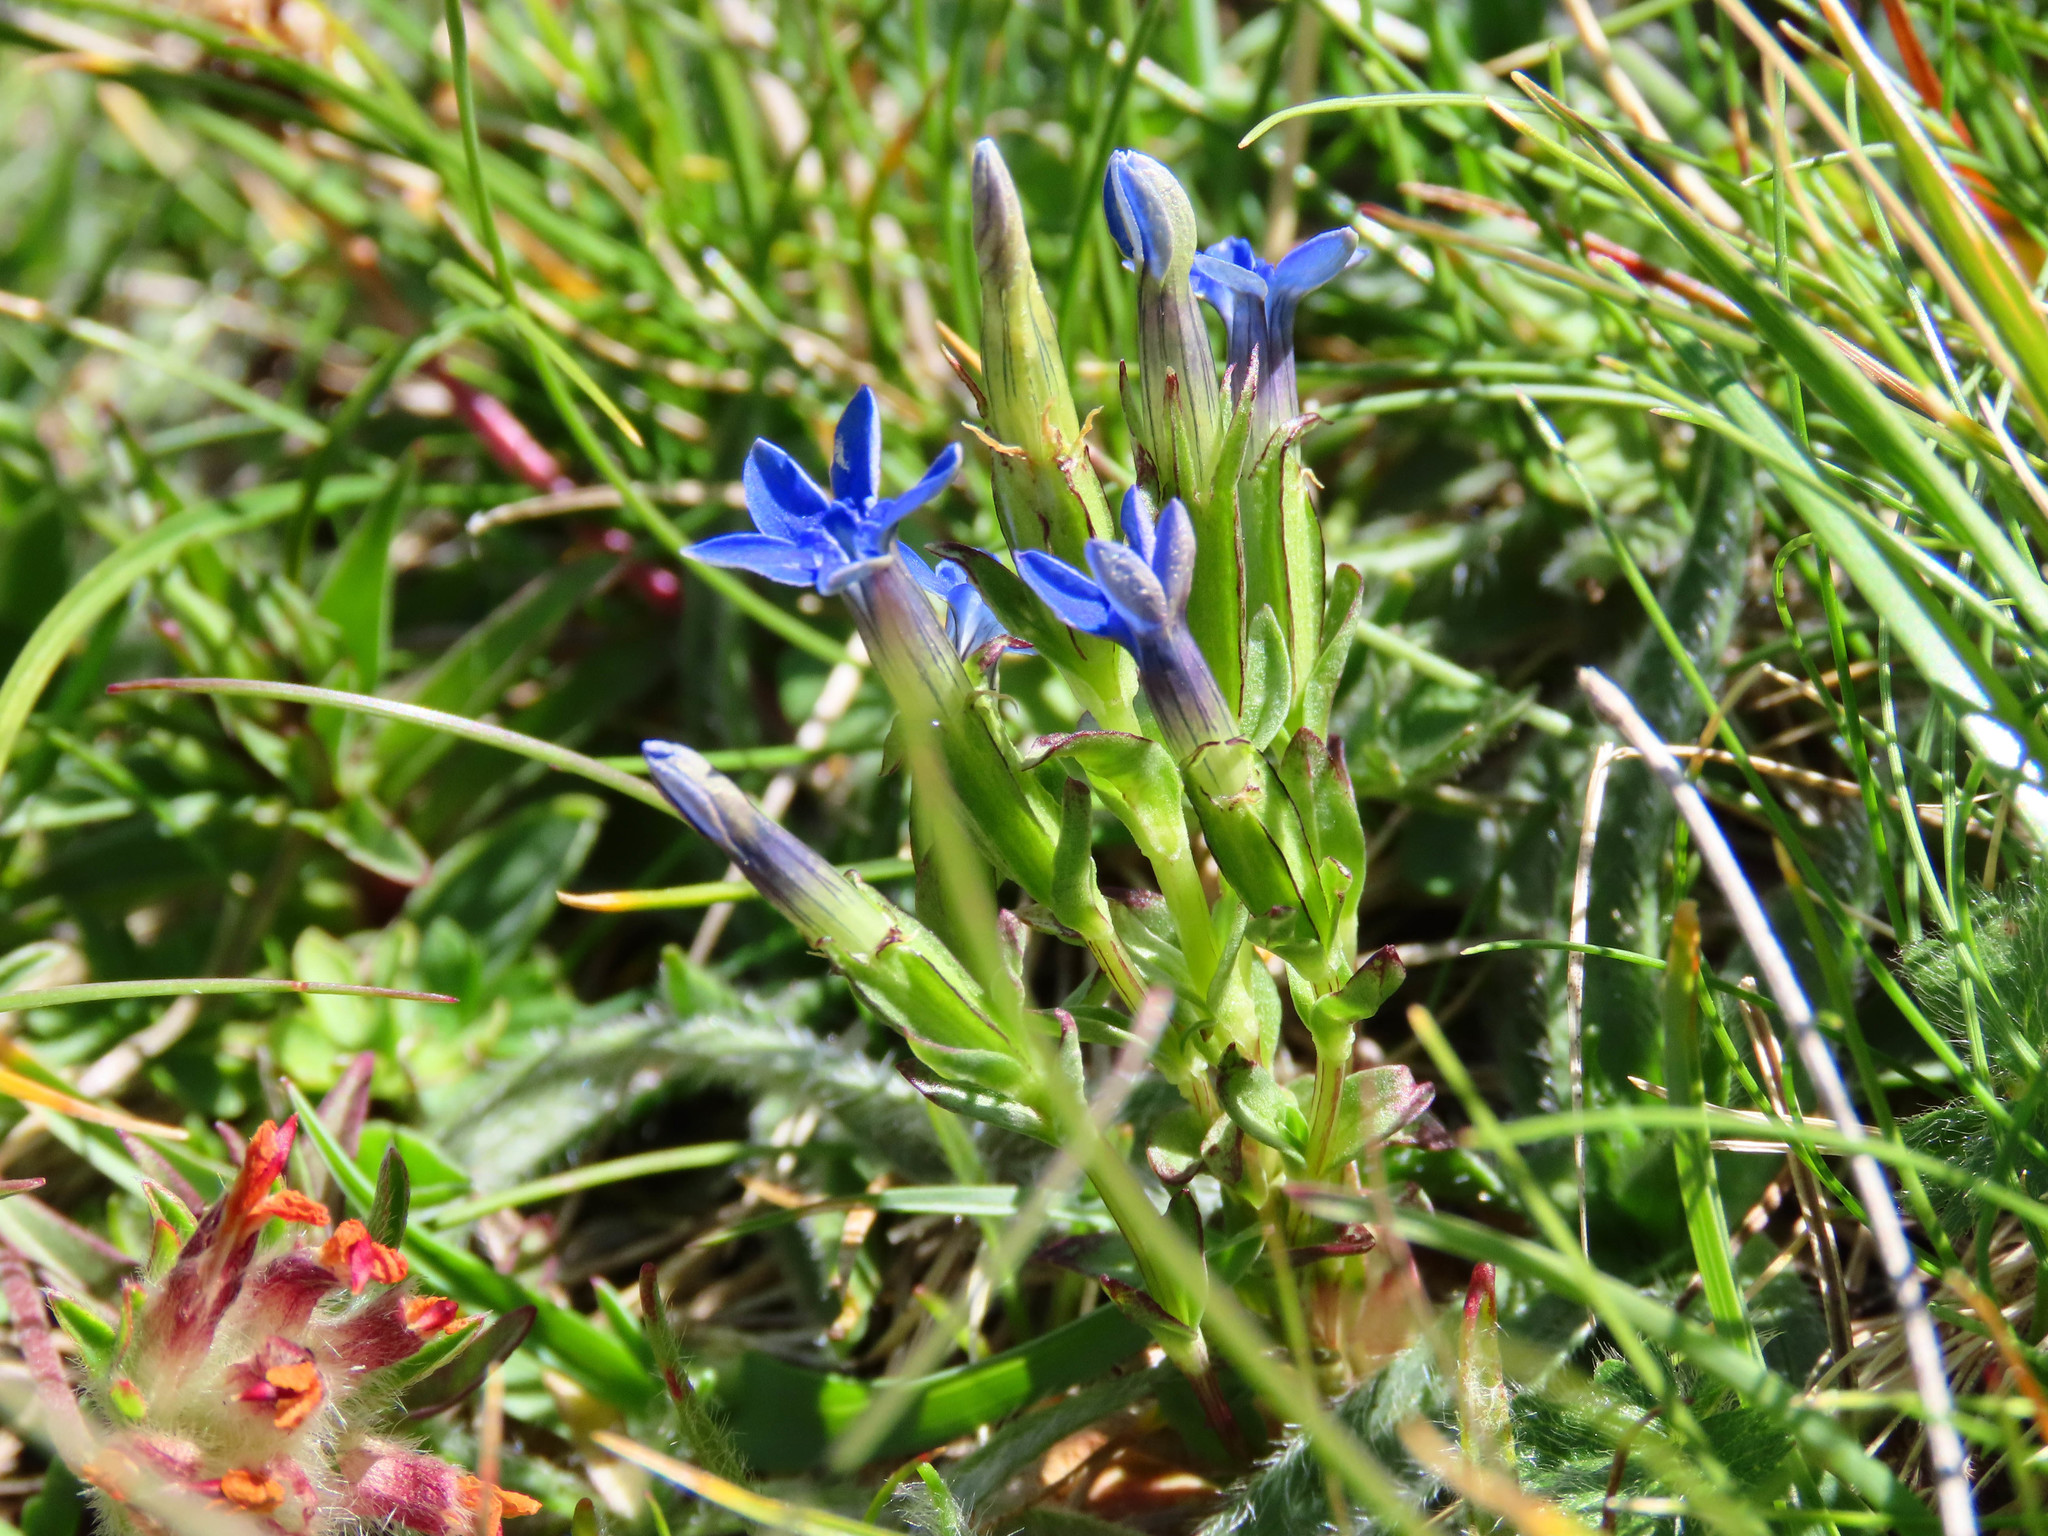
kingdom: Plantae
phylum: Tracheophyta
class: Magnoliopsida
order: Gentianales
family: Gentianaceae
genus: Gentiana
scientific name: Gentiana nivalis
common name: Alpine gentian
